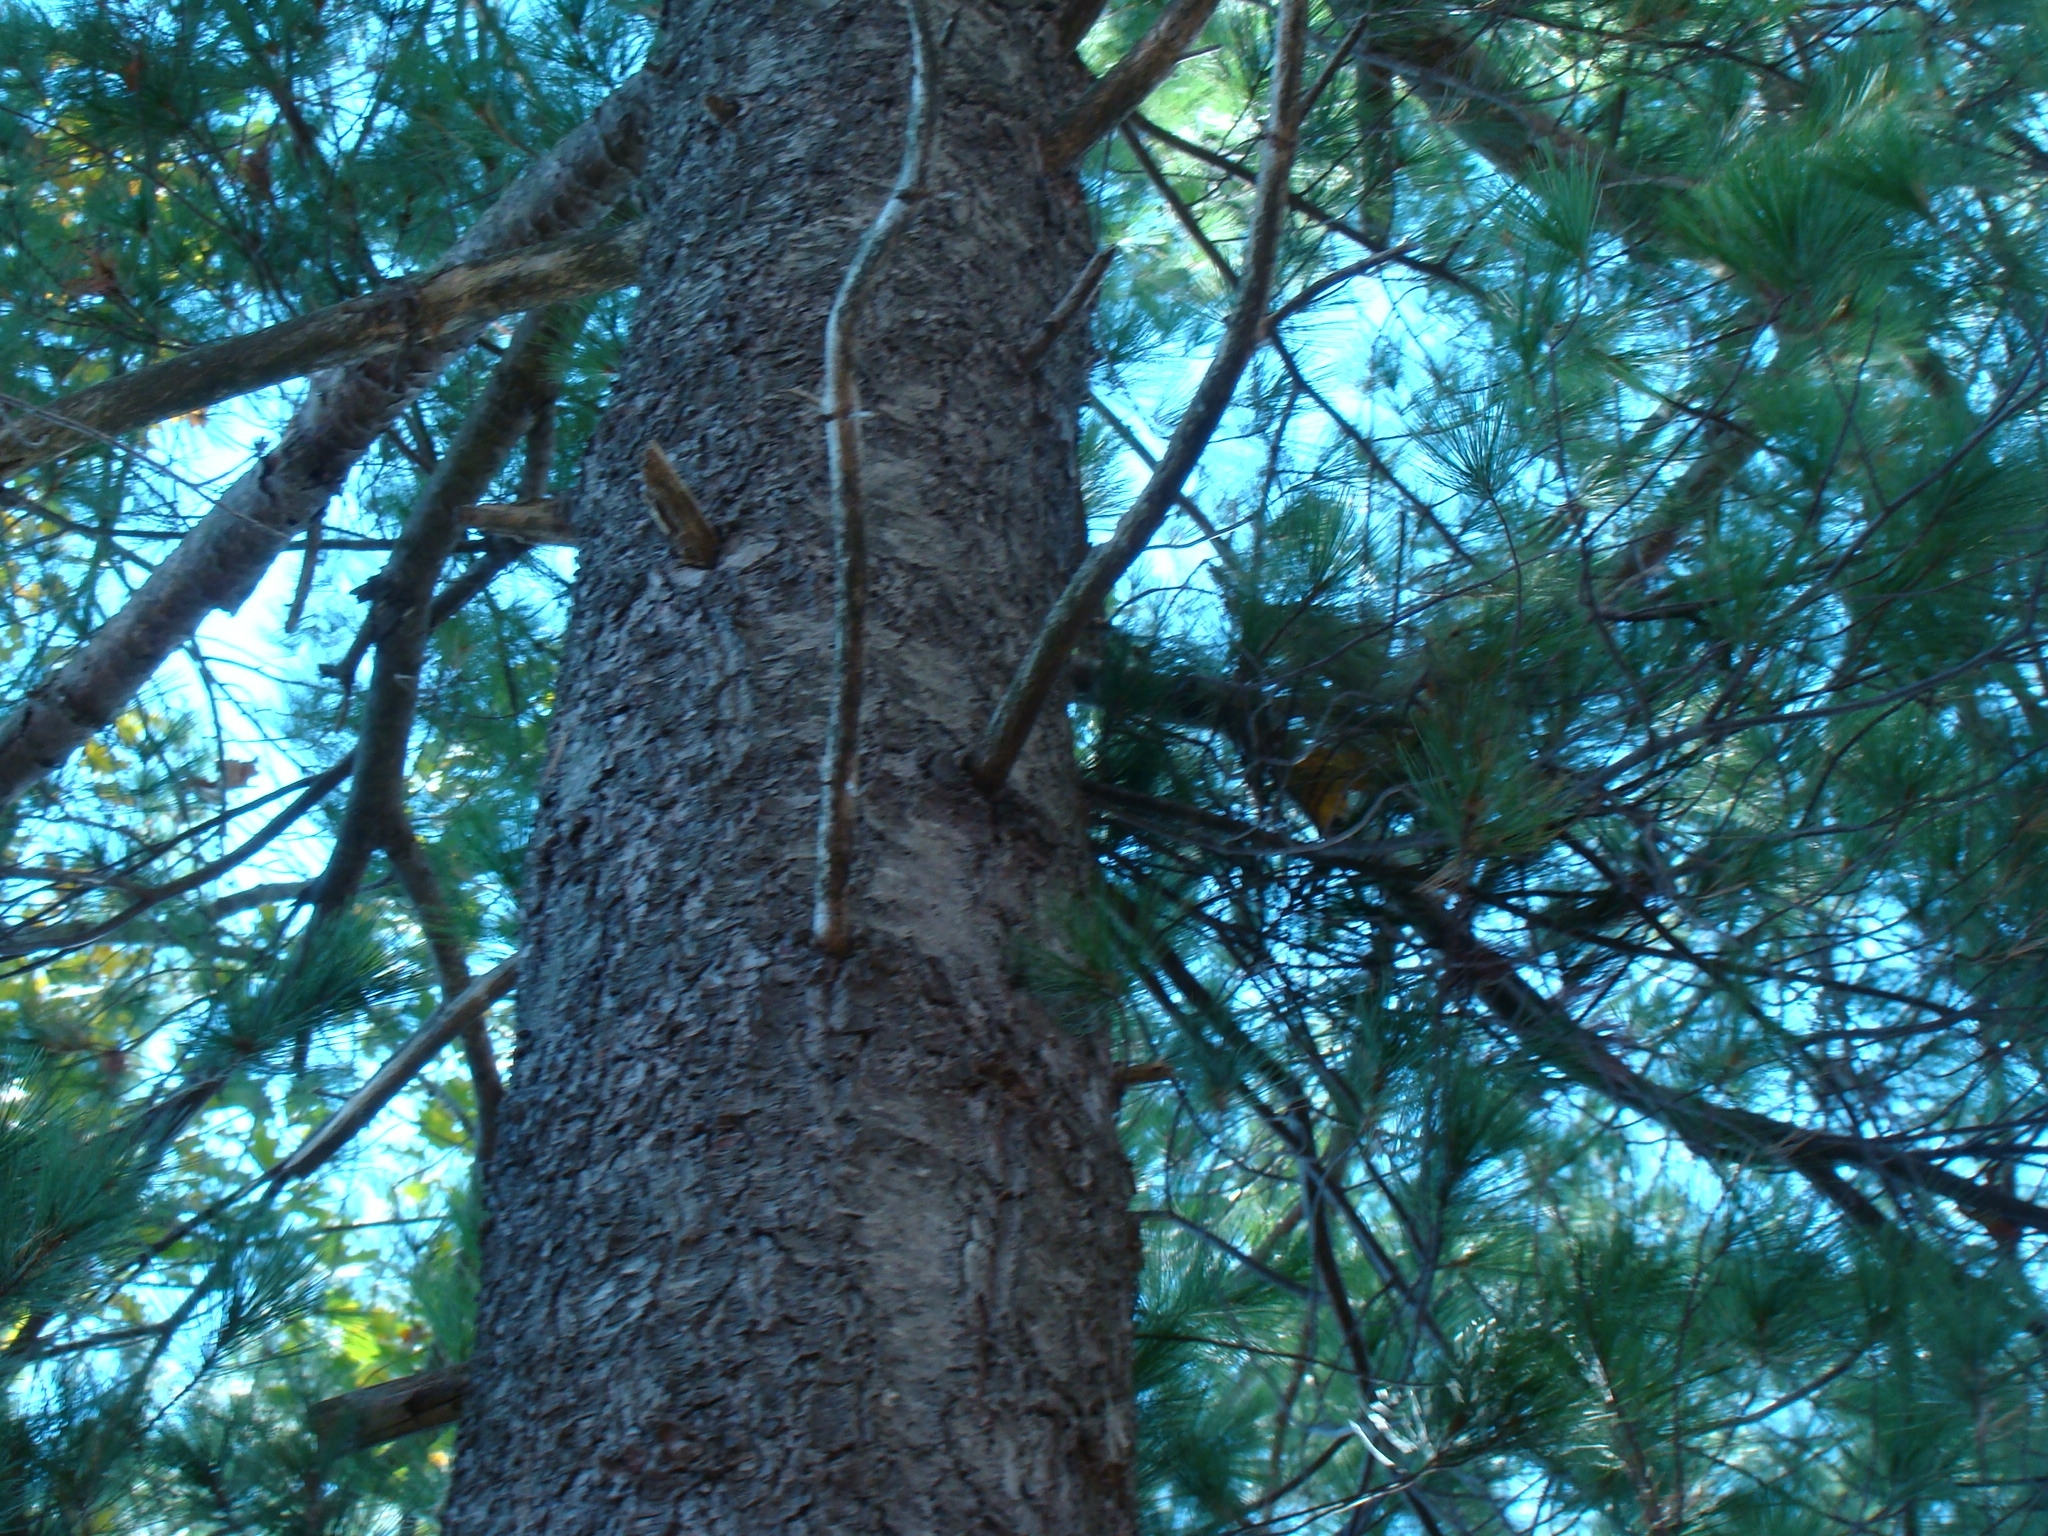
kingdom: Plantae
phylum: Tracheophyta
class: Pinopsida
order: Pinales
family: Pinaceae
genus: Pinus
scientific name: Pinus strobus
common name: Weymouth pine
